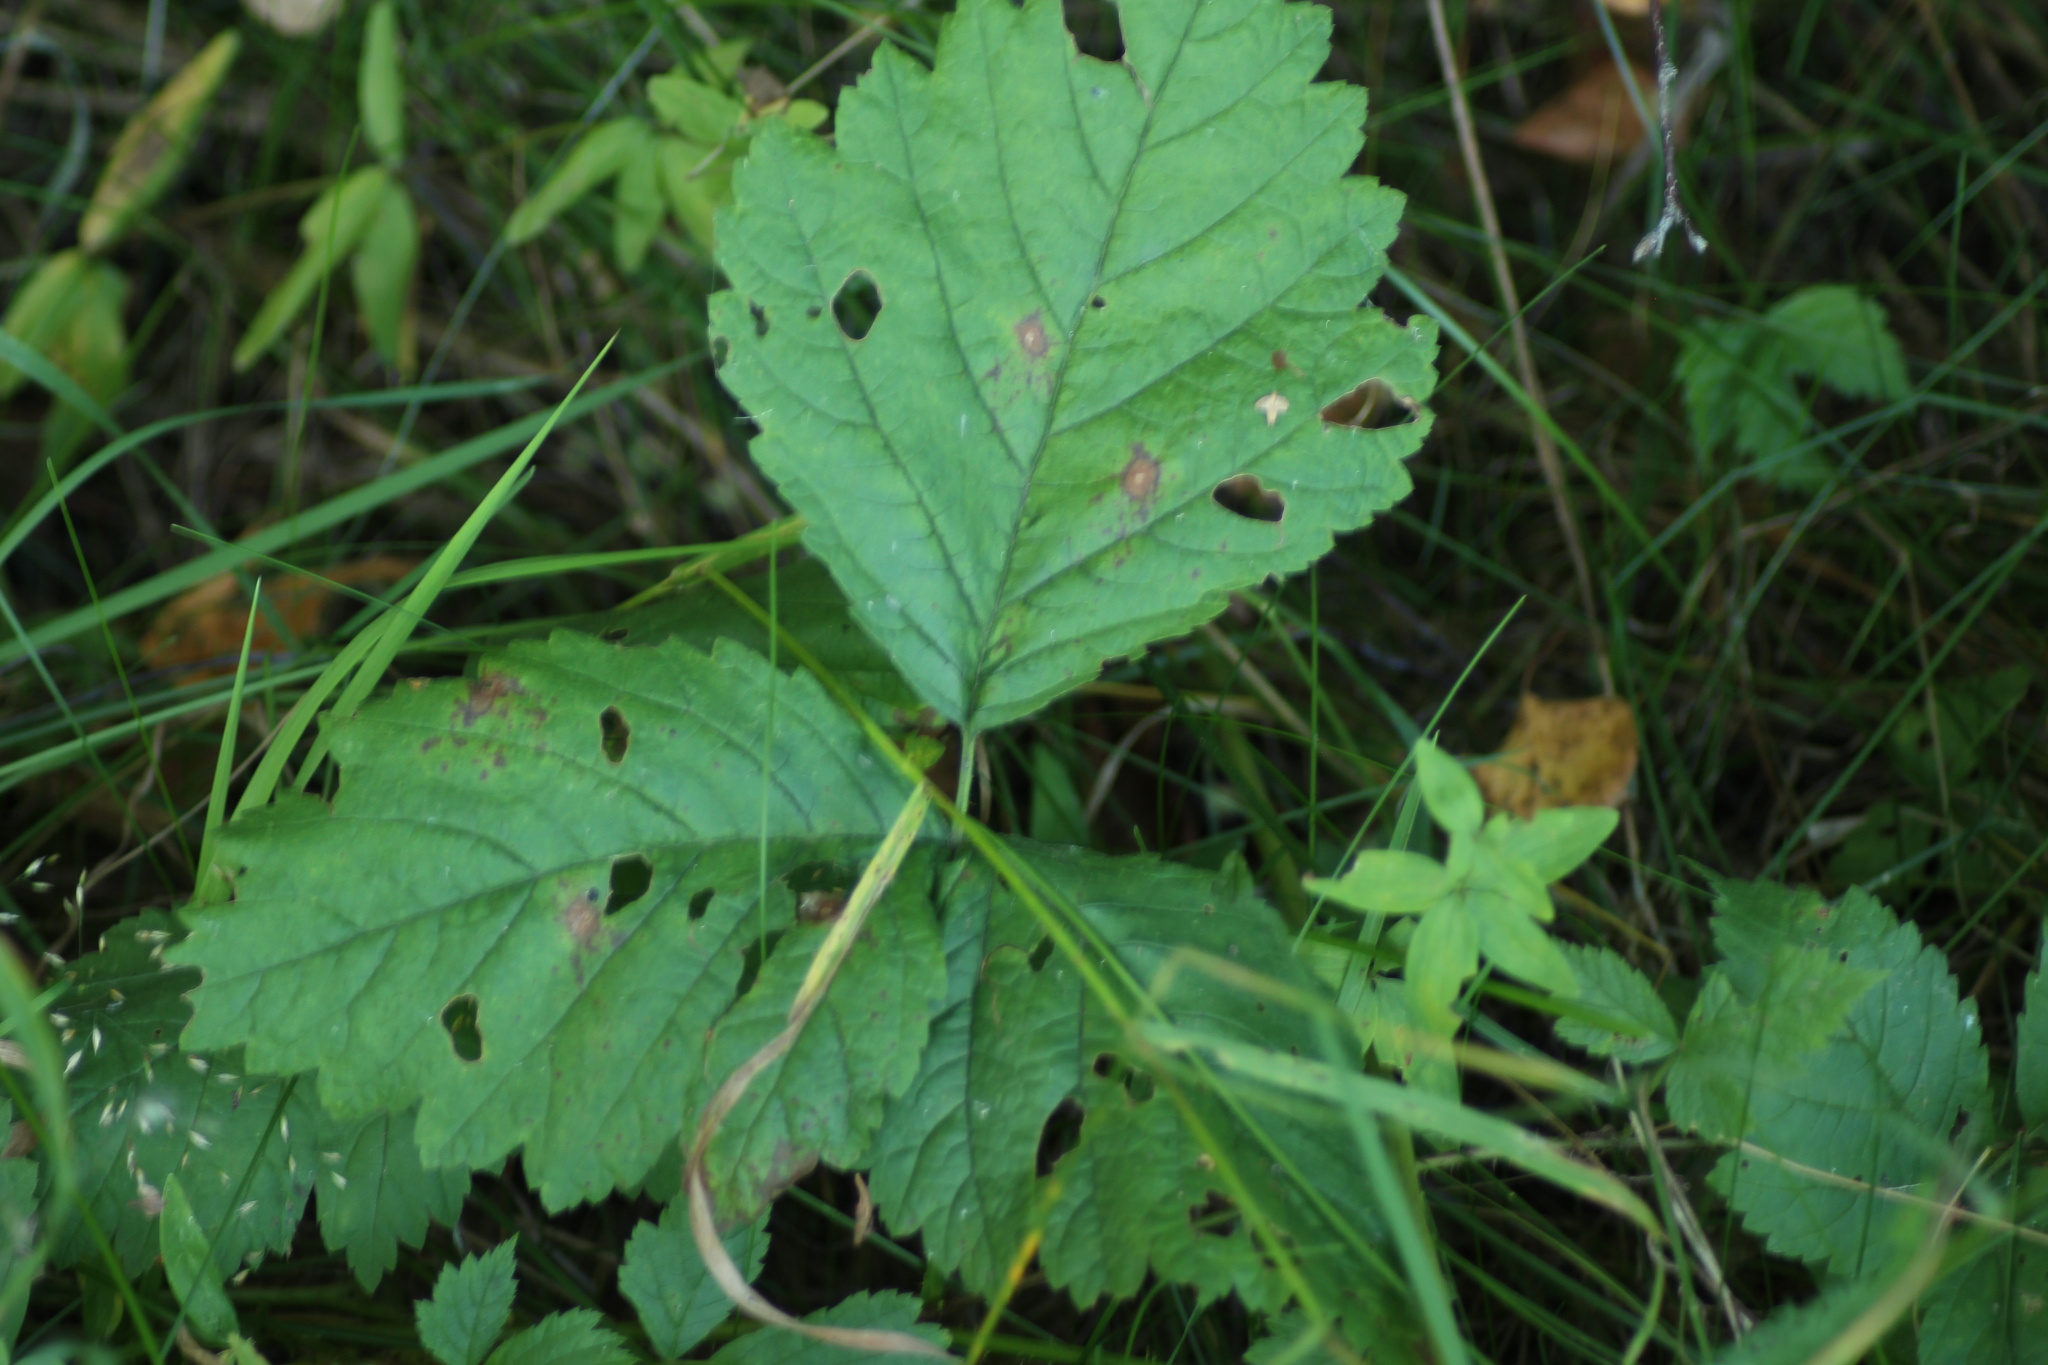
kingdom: Plantae
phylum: Tracheophyta
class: Magnoliopsida
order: Rosales
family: Rosaceae
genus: Rubus
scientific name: Rubus saxatilis
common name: Stone bramble
